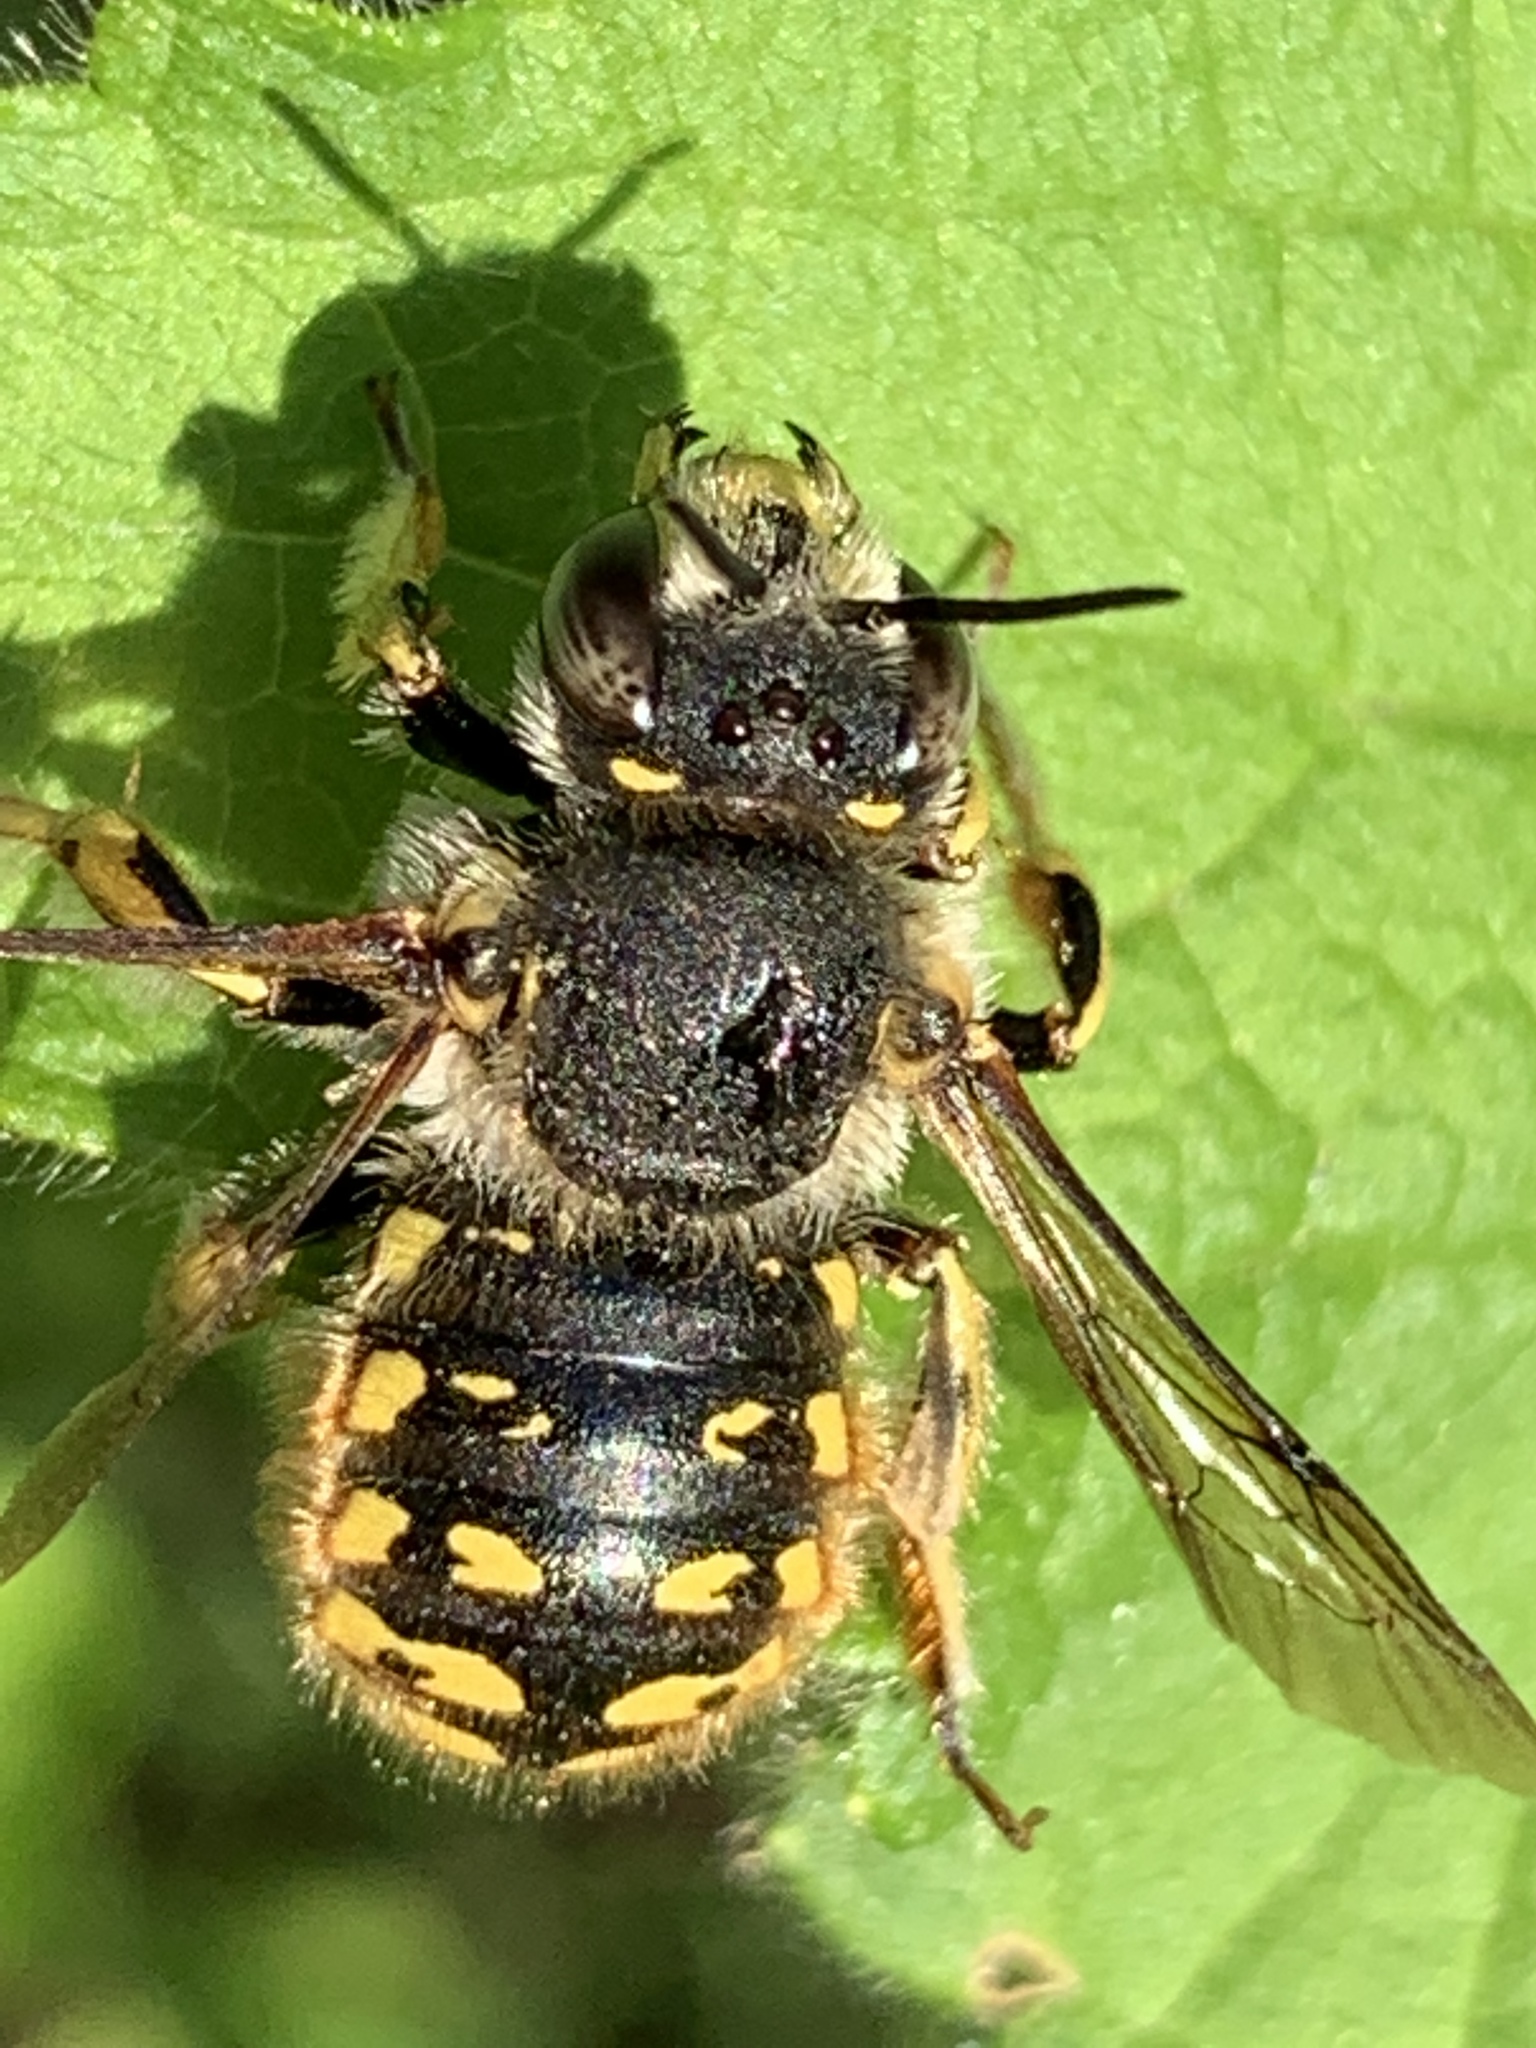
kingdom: Animalia
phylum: Arthropoda
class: Insecta
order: Hymenoptera
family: Megachilidae
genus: Anthidium
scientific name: Anthidium manicatum
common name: Wool carder bee
